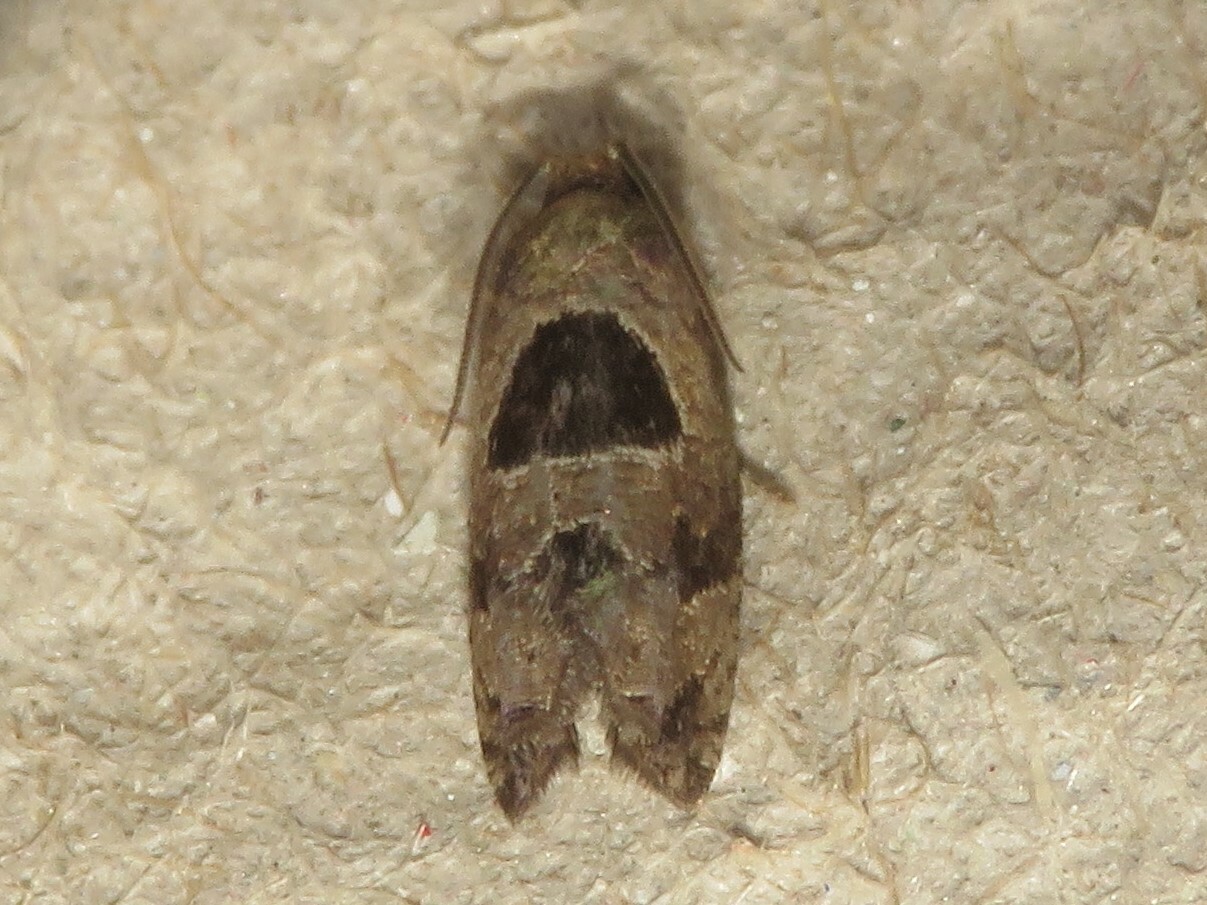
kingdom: Animalia
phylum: Arthropoda
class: Insecta
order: Lepidoptera
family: Tortricidae
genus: Epiblema
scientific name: Epiblema brightonana
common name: Brighton's epiblema moth
